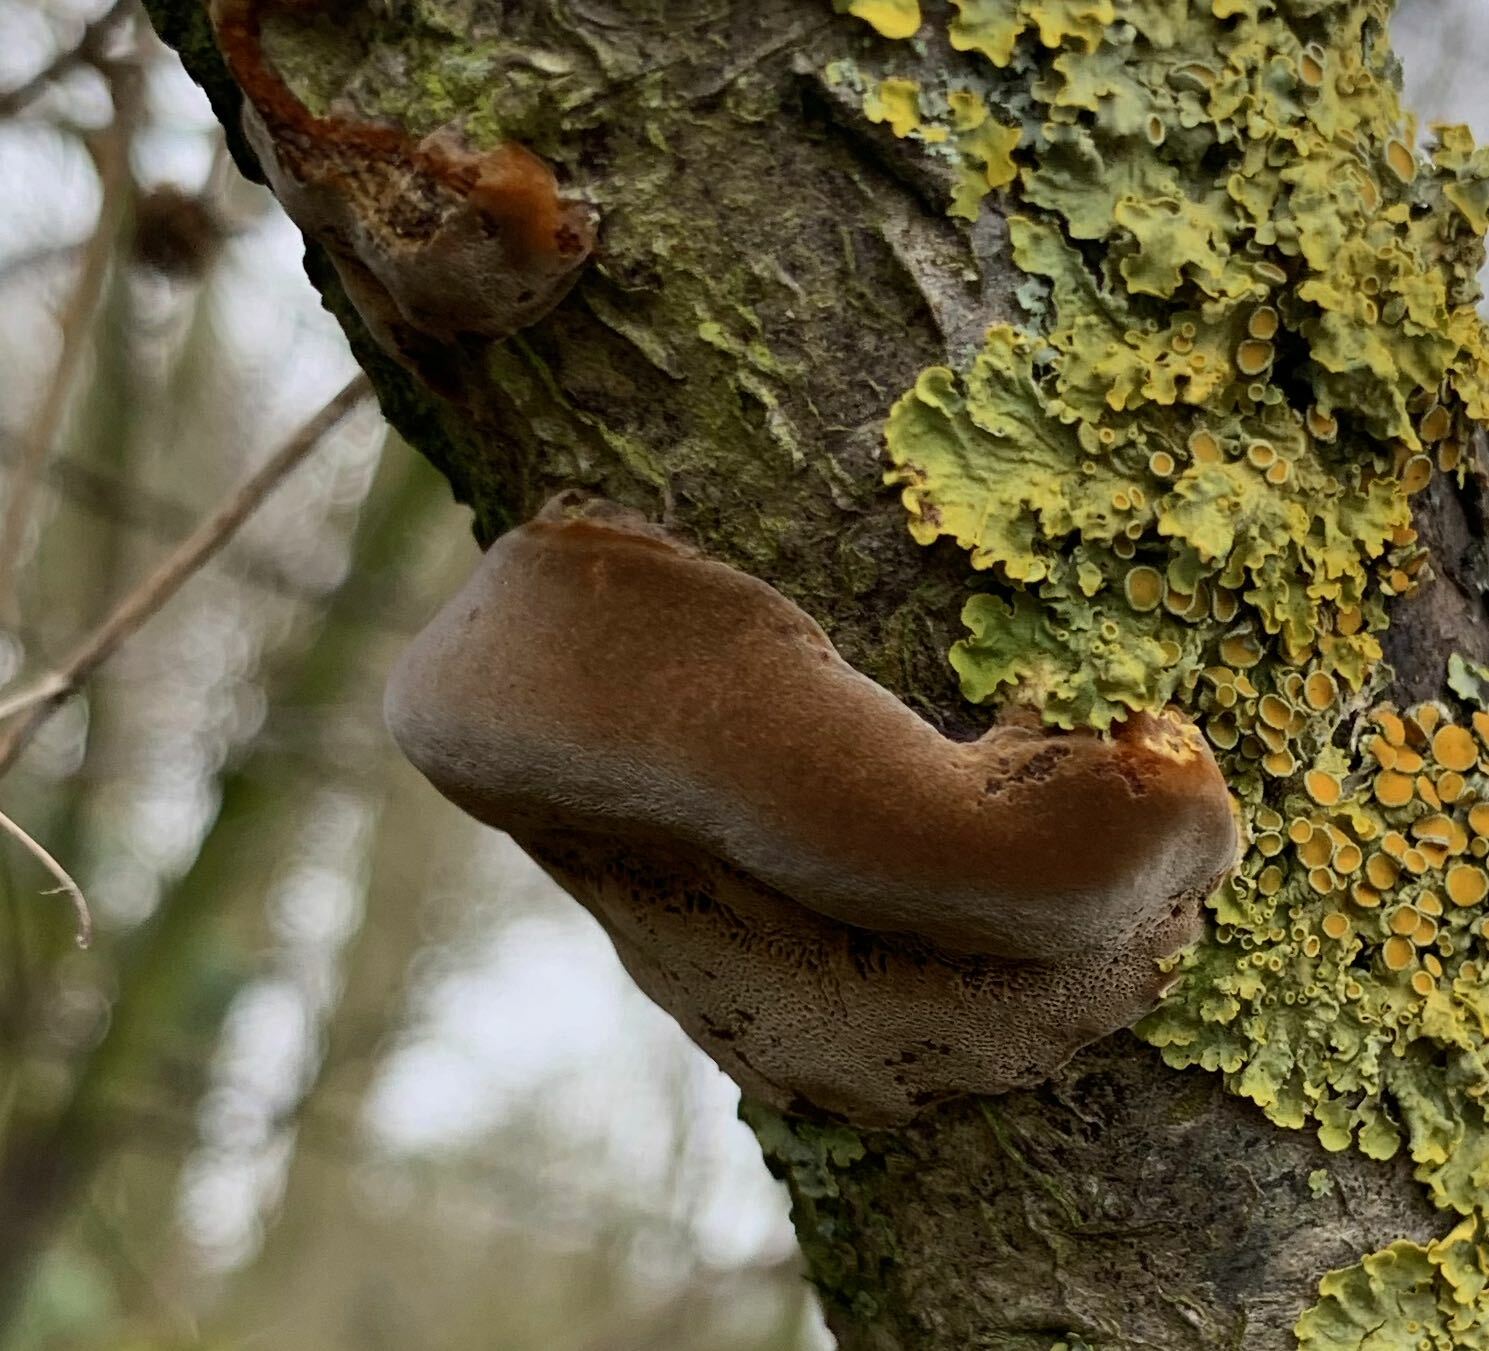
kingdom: Fungi
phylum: Basidiomycota
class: Agaricomycetes
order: Hymenochaetales
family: Hymenochaetaceae
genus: Phellinus
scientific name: Phellinus pomaceus
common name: Cushion bracket
